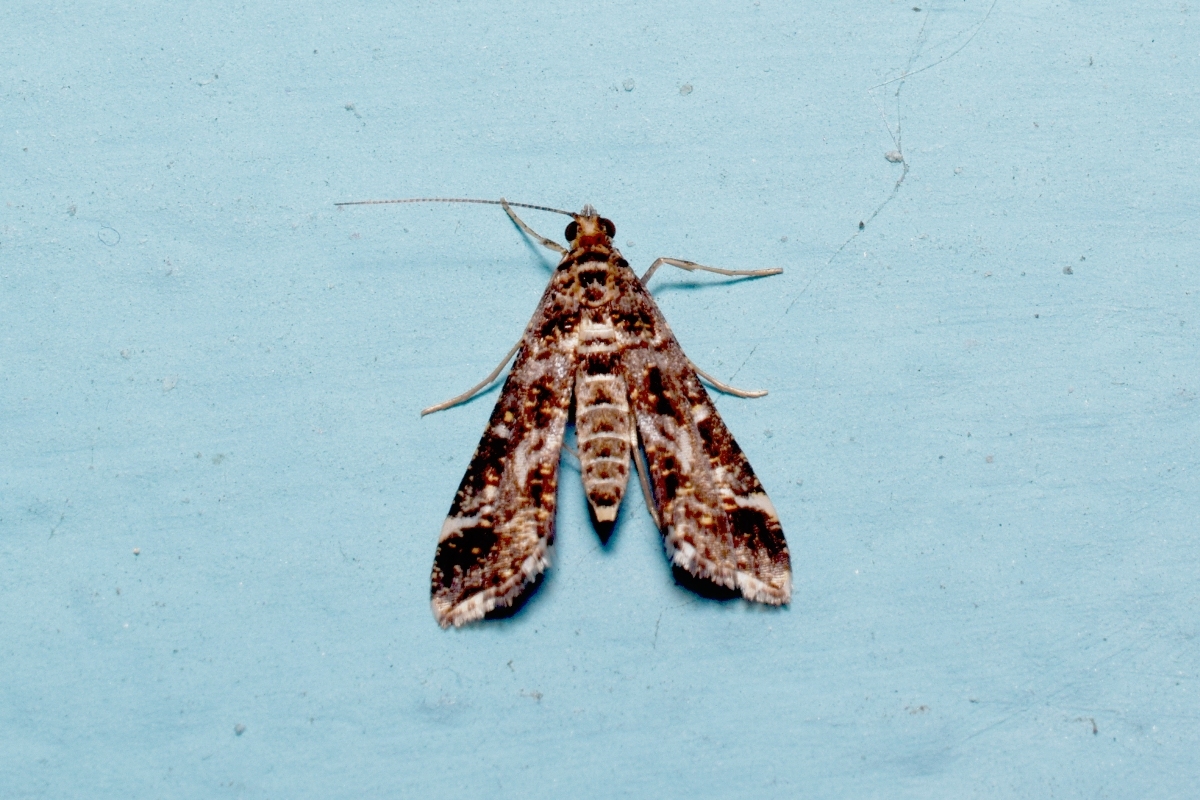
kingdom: Animalia
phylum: Arthropoda
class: Insecta
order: Lepidoptera
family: Crambidae
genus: Diasemiopsis
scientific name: Diasemiopsis ramburialis
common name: Vagrant china-mark
